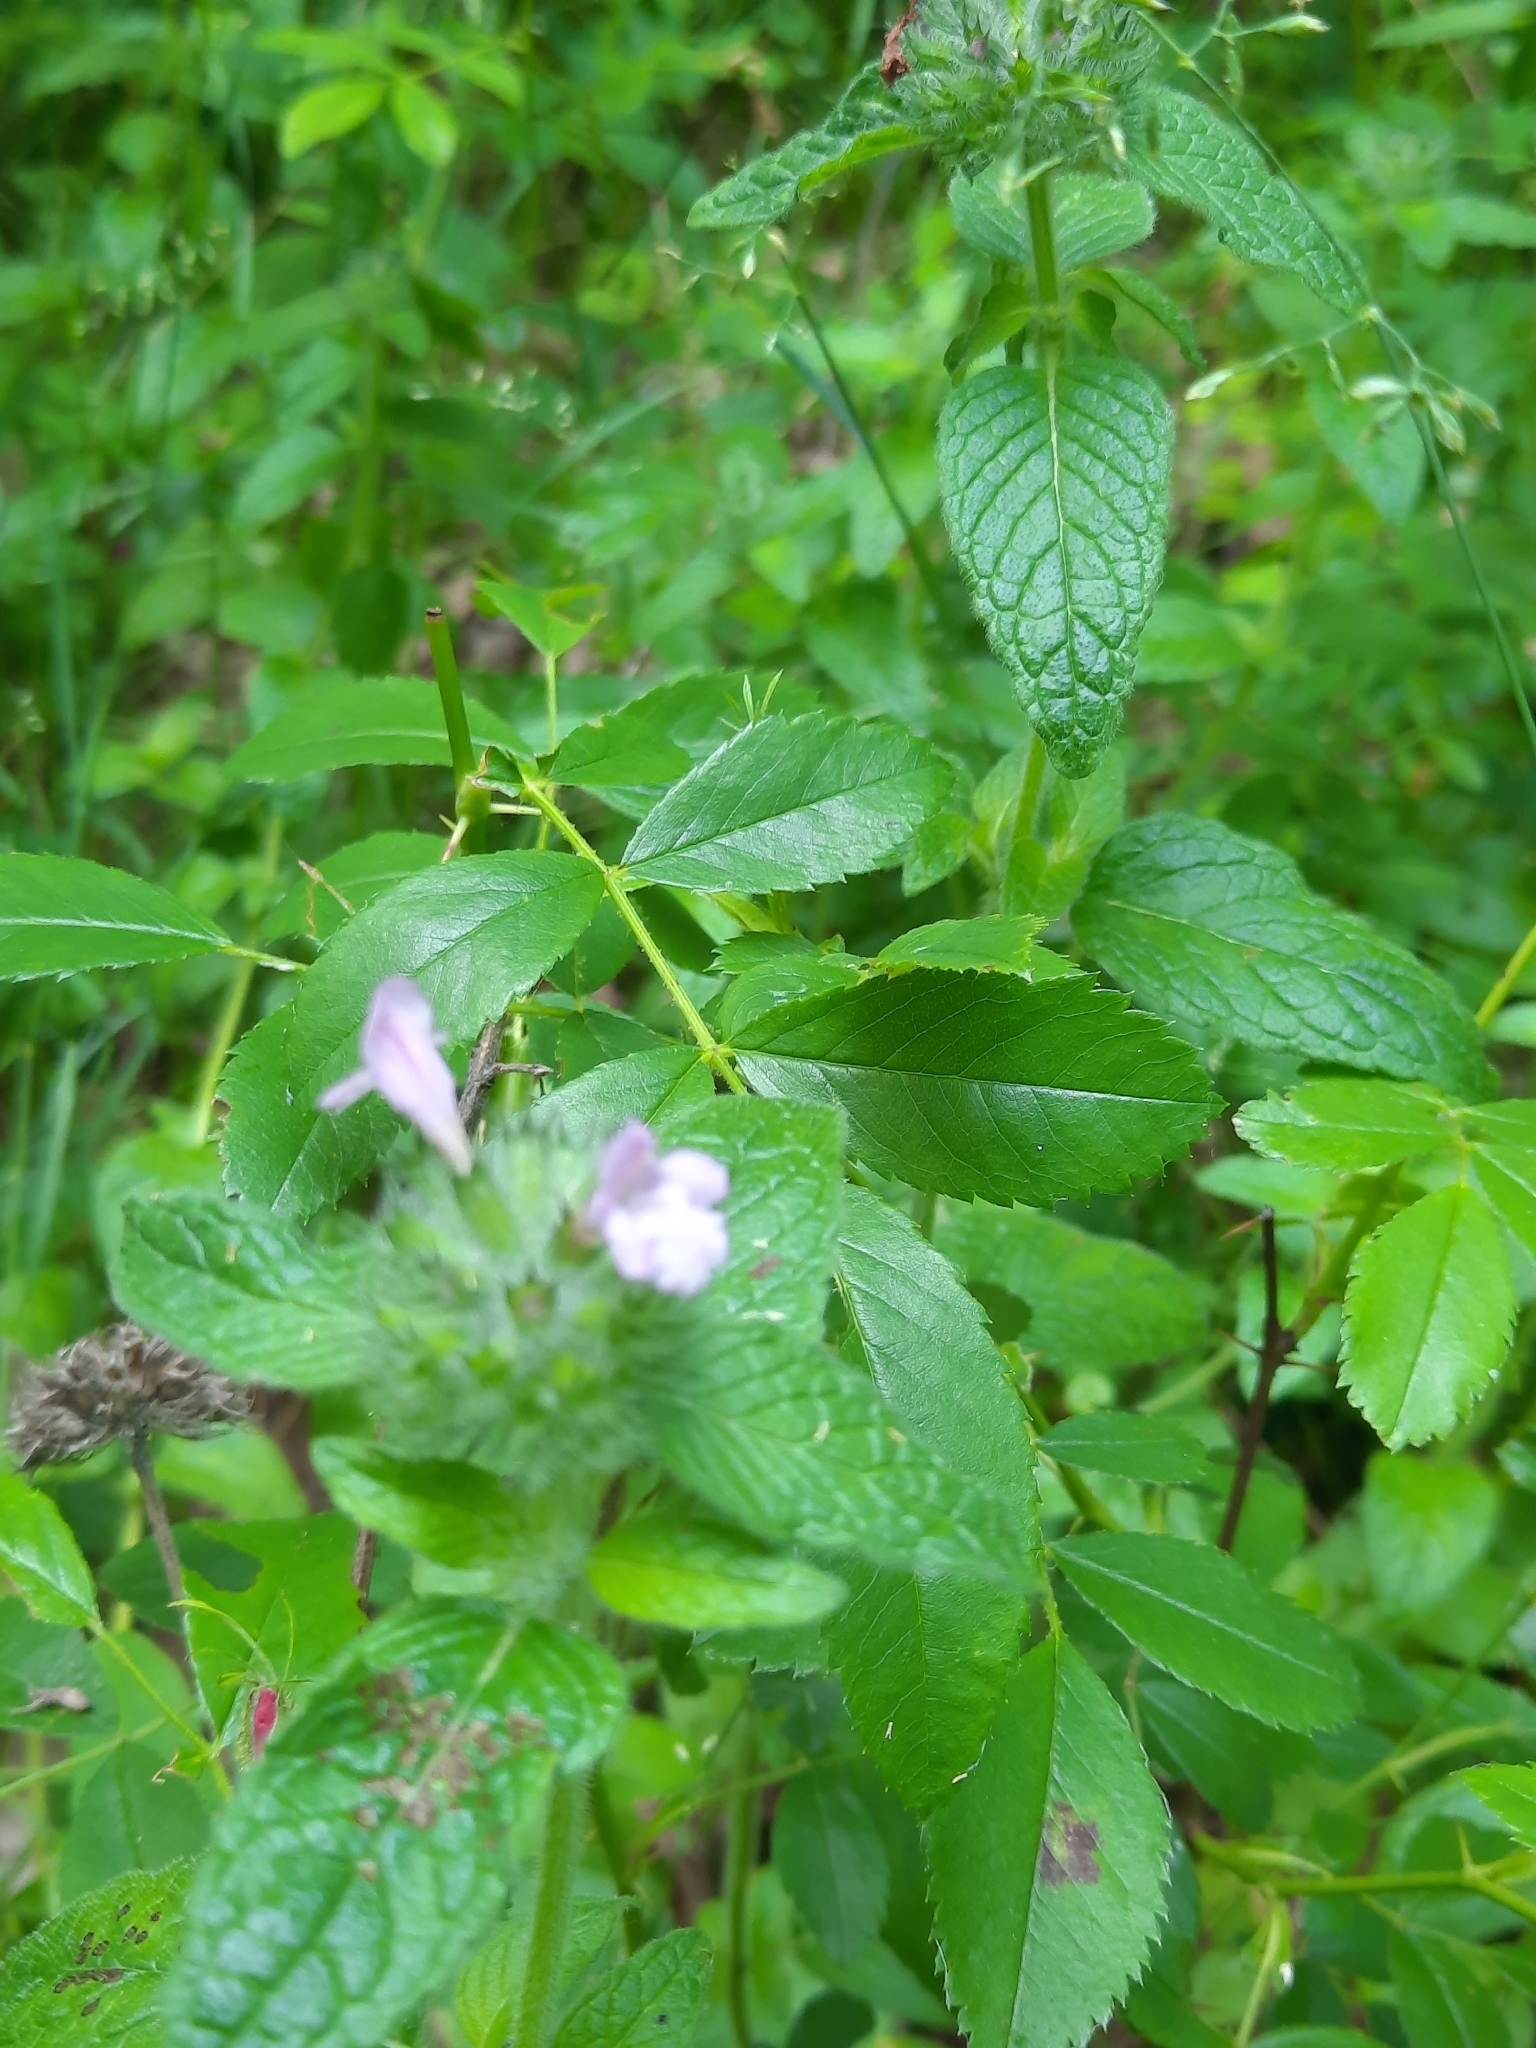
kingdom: Plantae
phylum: Tracheophyta
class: Magnoliopsida
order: Lamiales
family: Lamiaceae
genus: Clinopodium
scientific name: Clinopodium vulgare
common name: Wild basil
